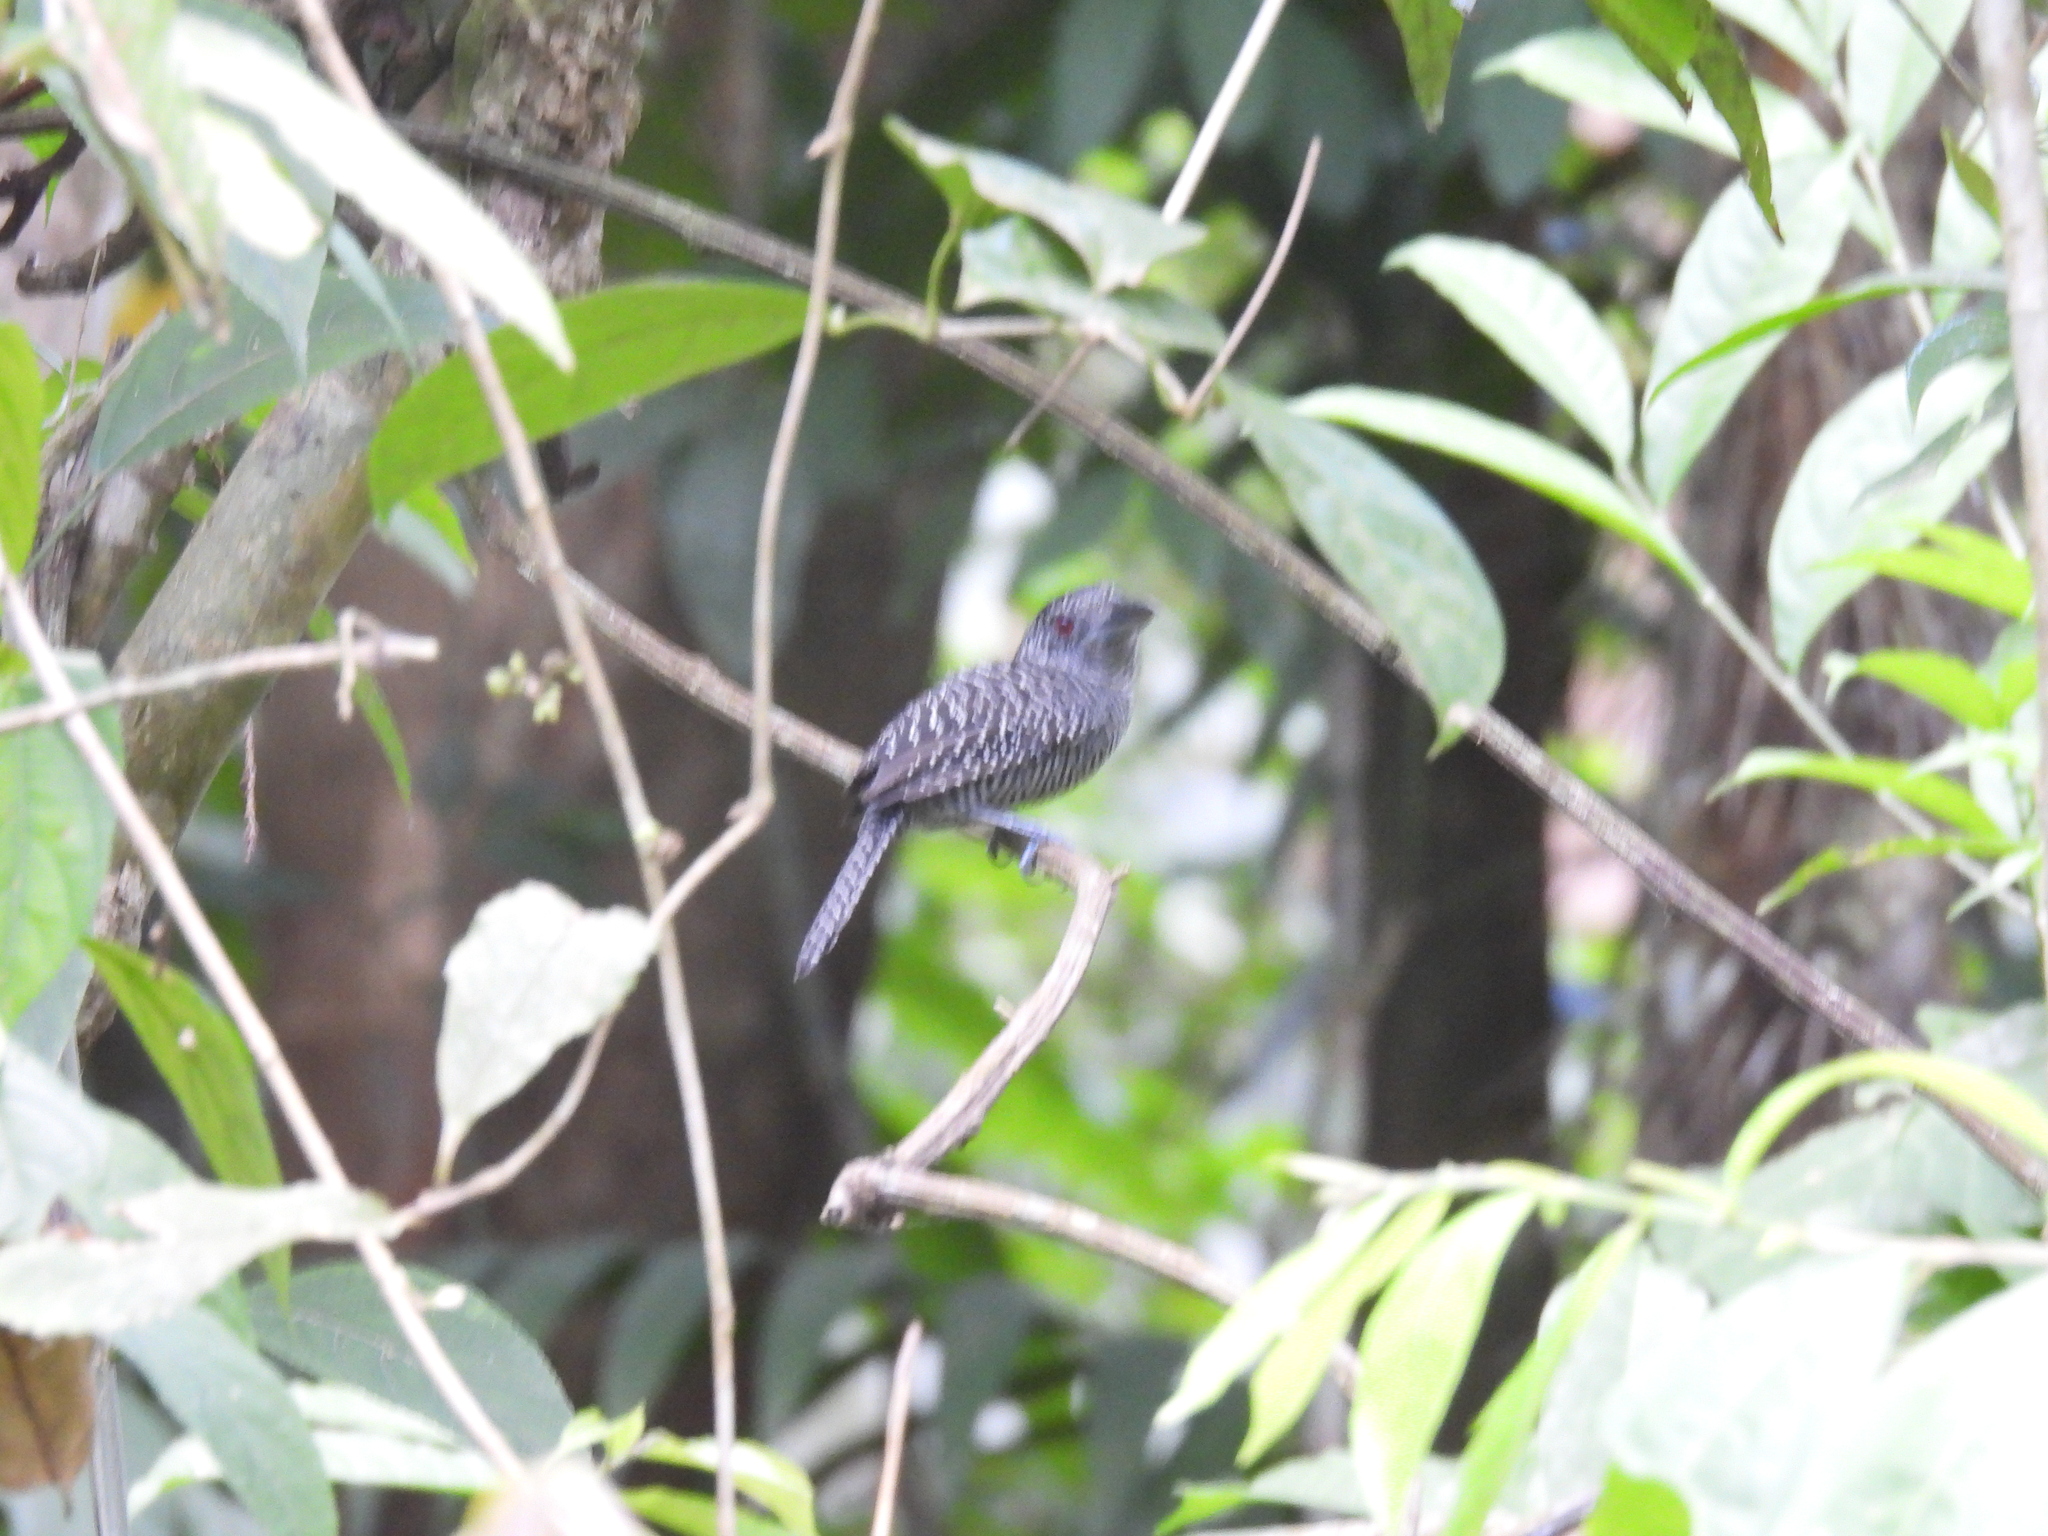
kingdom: Animalia
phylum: Chordata
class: Aves
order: Passeriformes
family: Thamnophilidae
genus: Cymbilaimus
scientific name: Cymbilaimus lineatus
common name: Fasciated antshrike
